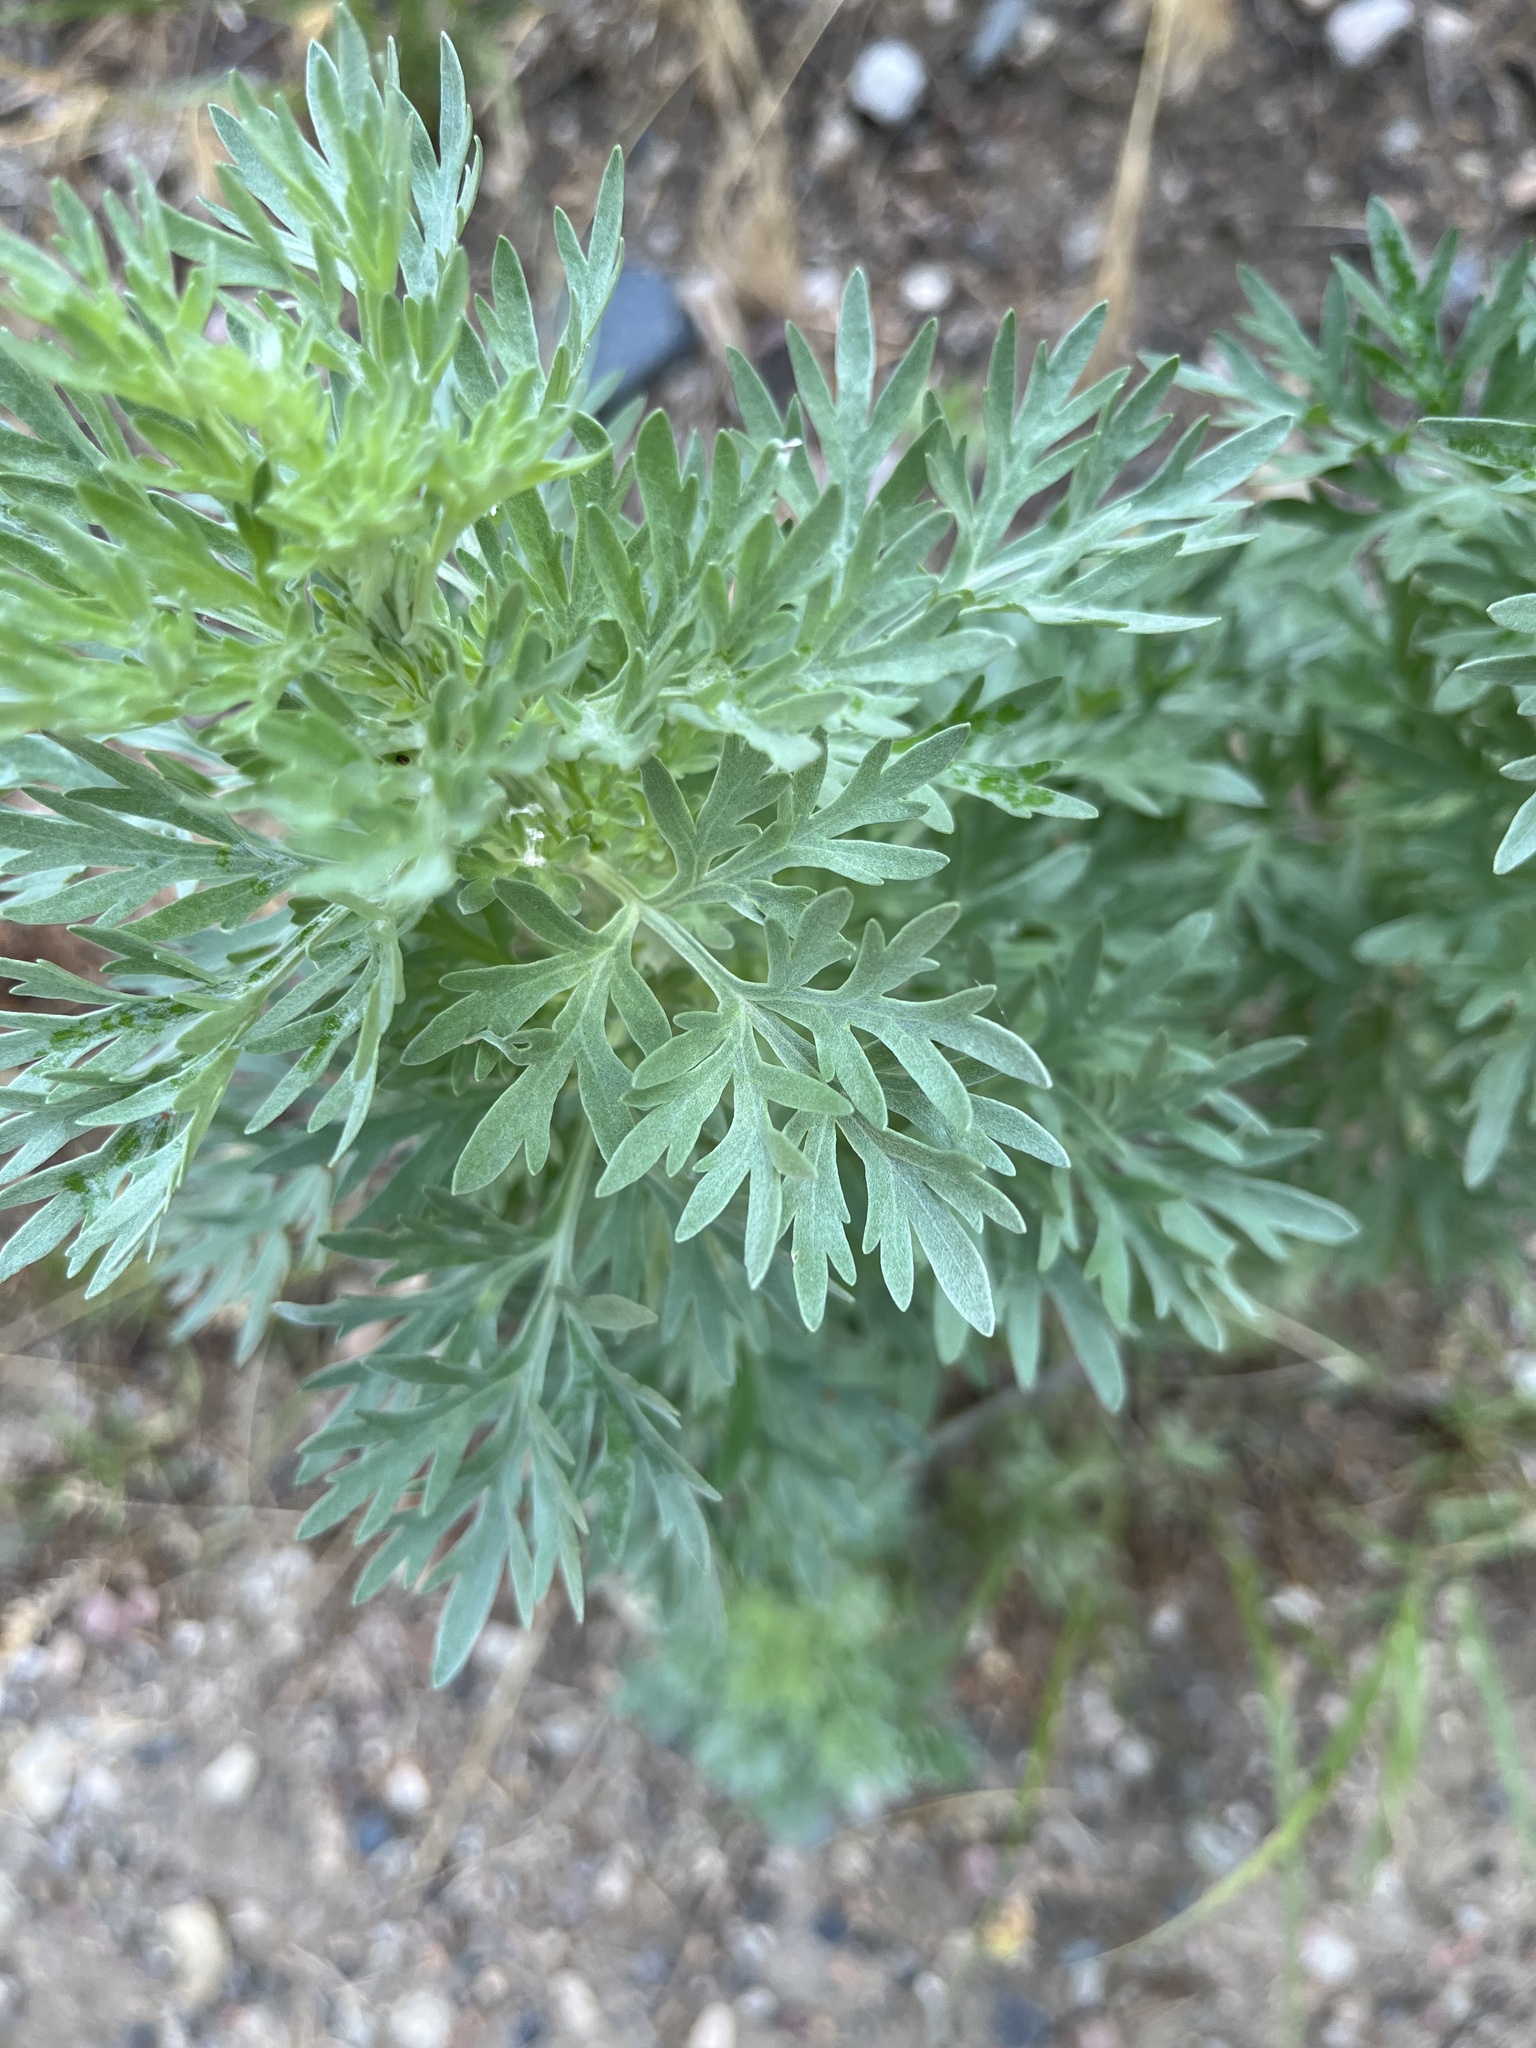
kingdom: Plantae
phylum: Tracheophyta
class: Magnoliopsida
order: Asterales
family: Asteraceae
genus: Artemisia
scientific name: Artemisia absinthium
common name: Wormwood
